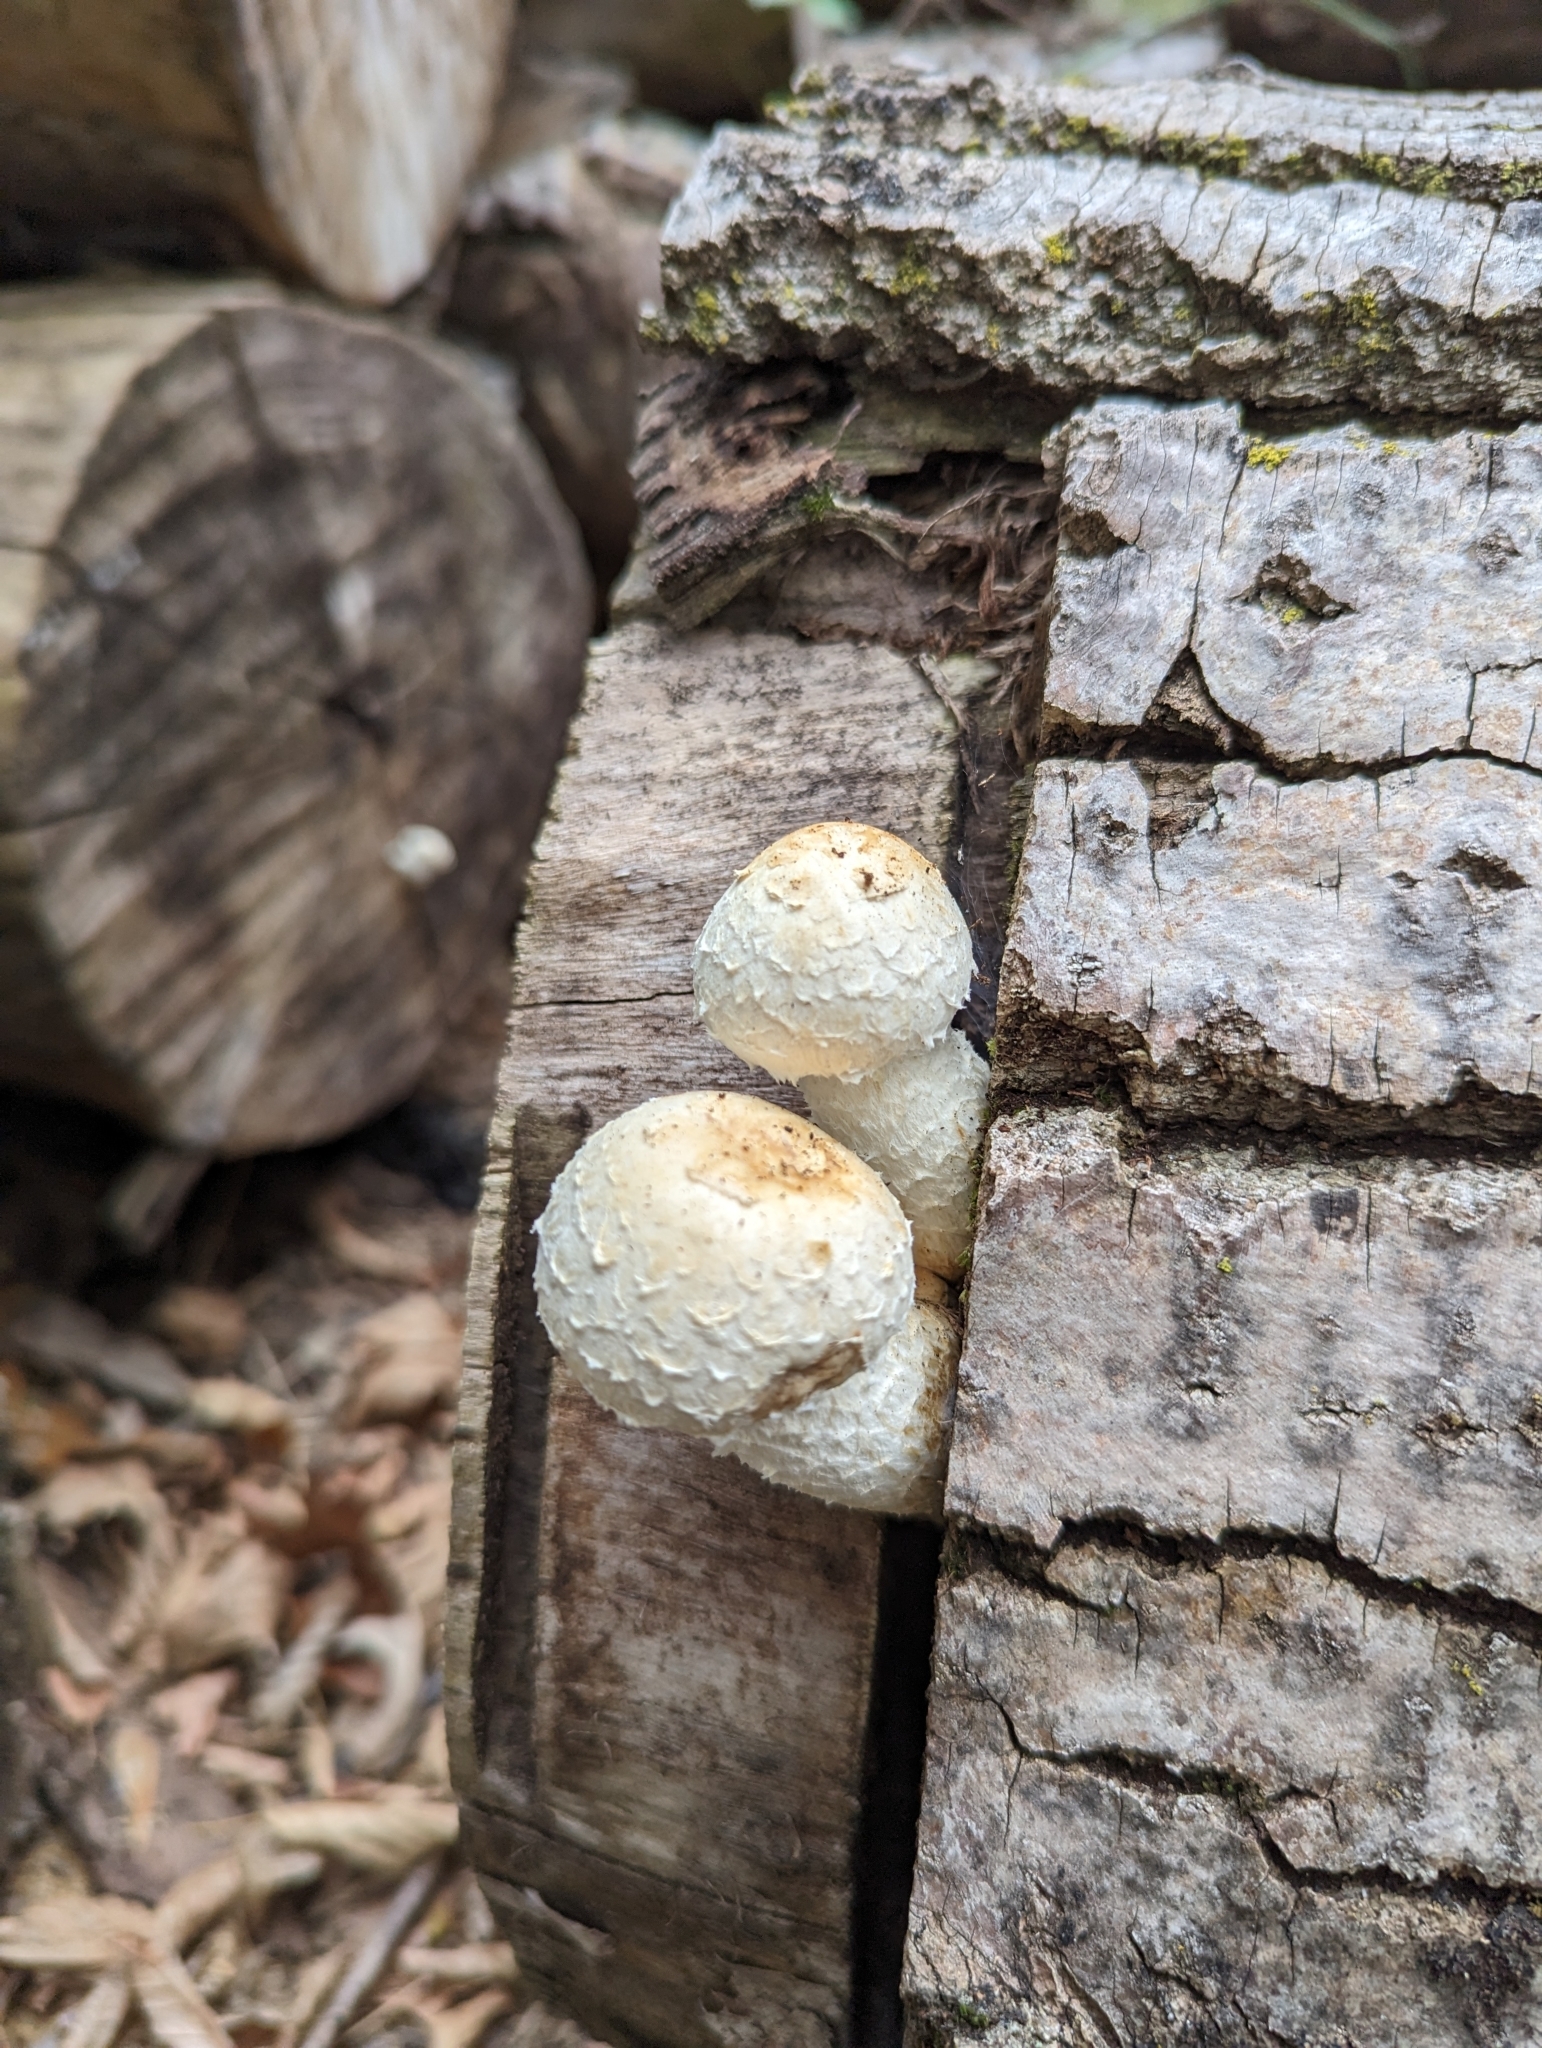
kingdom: Fungi
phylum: Basidiomycota
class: Agaricomycetes
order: Agaricales
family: Strophariaceae
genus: Pholiota
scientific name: Pholiota populnea
